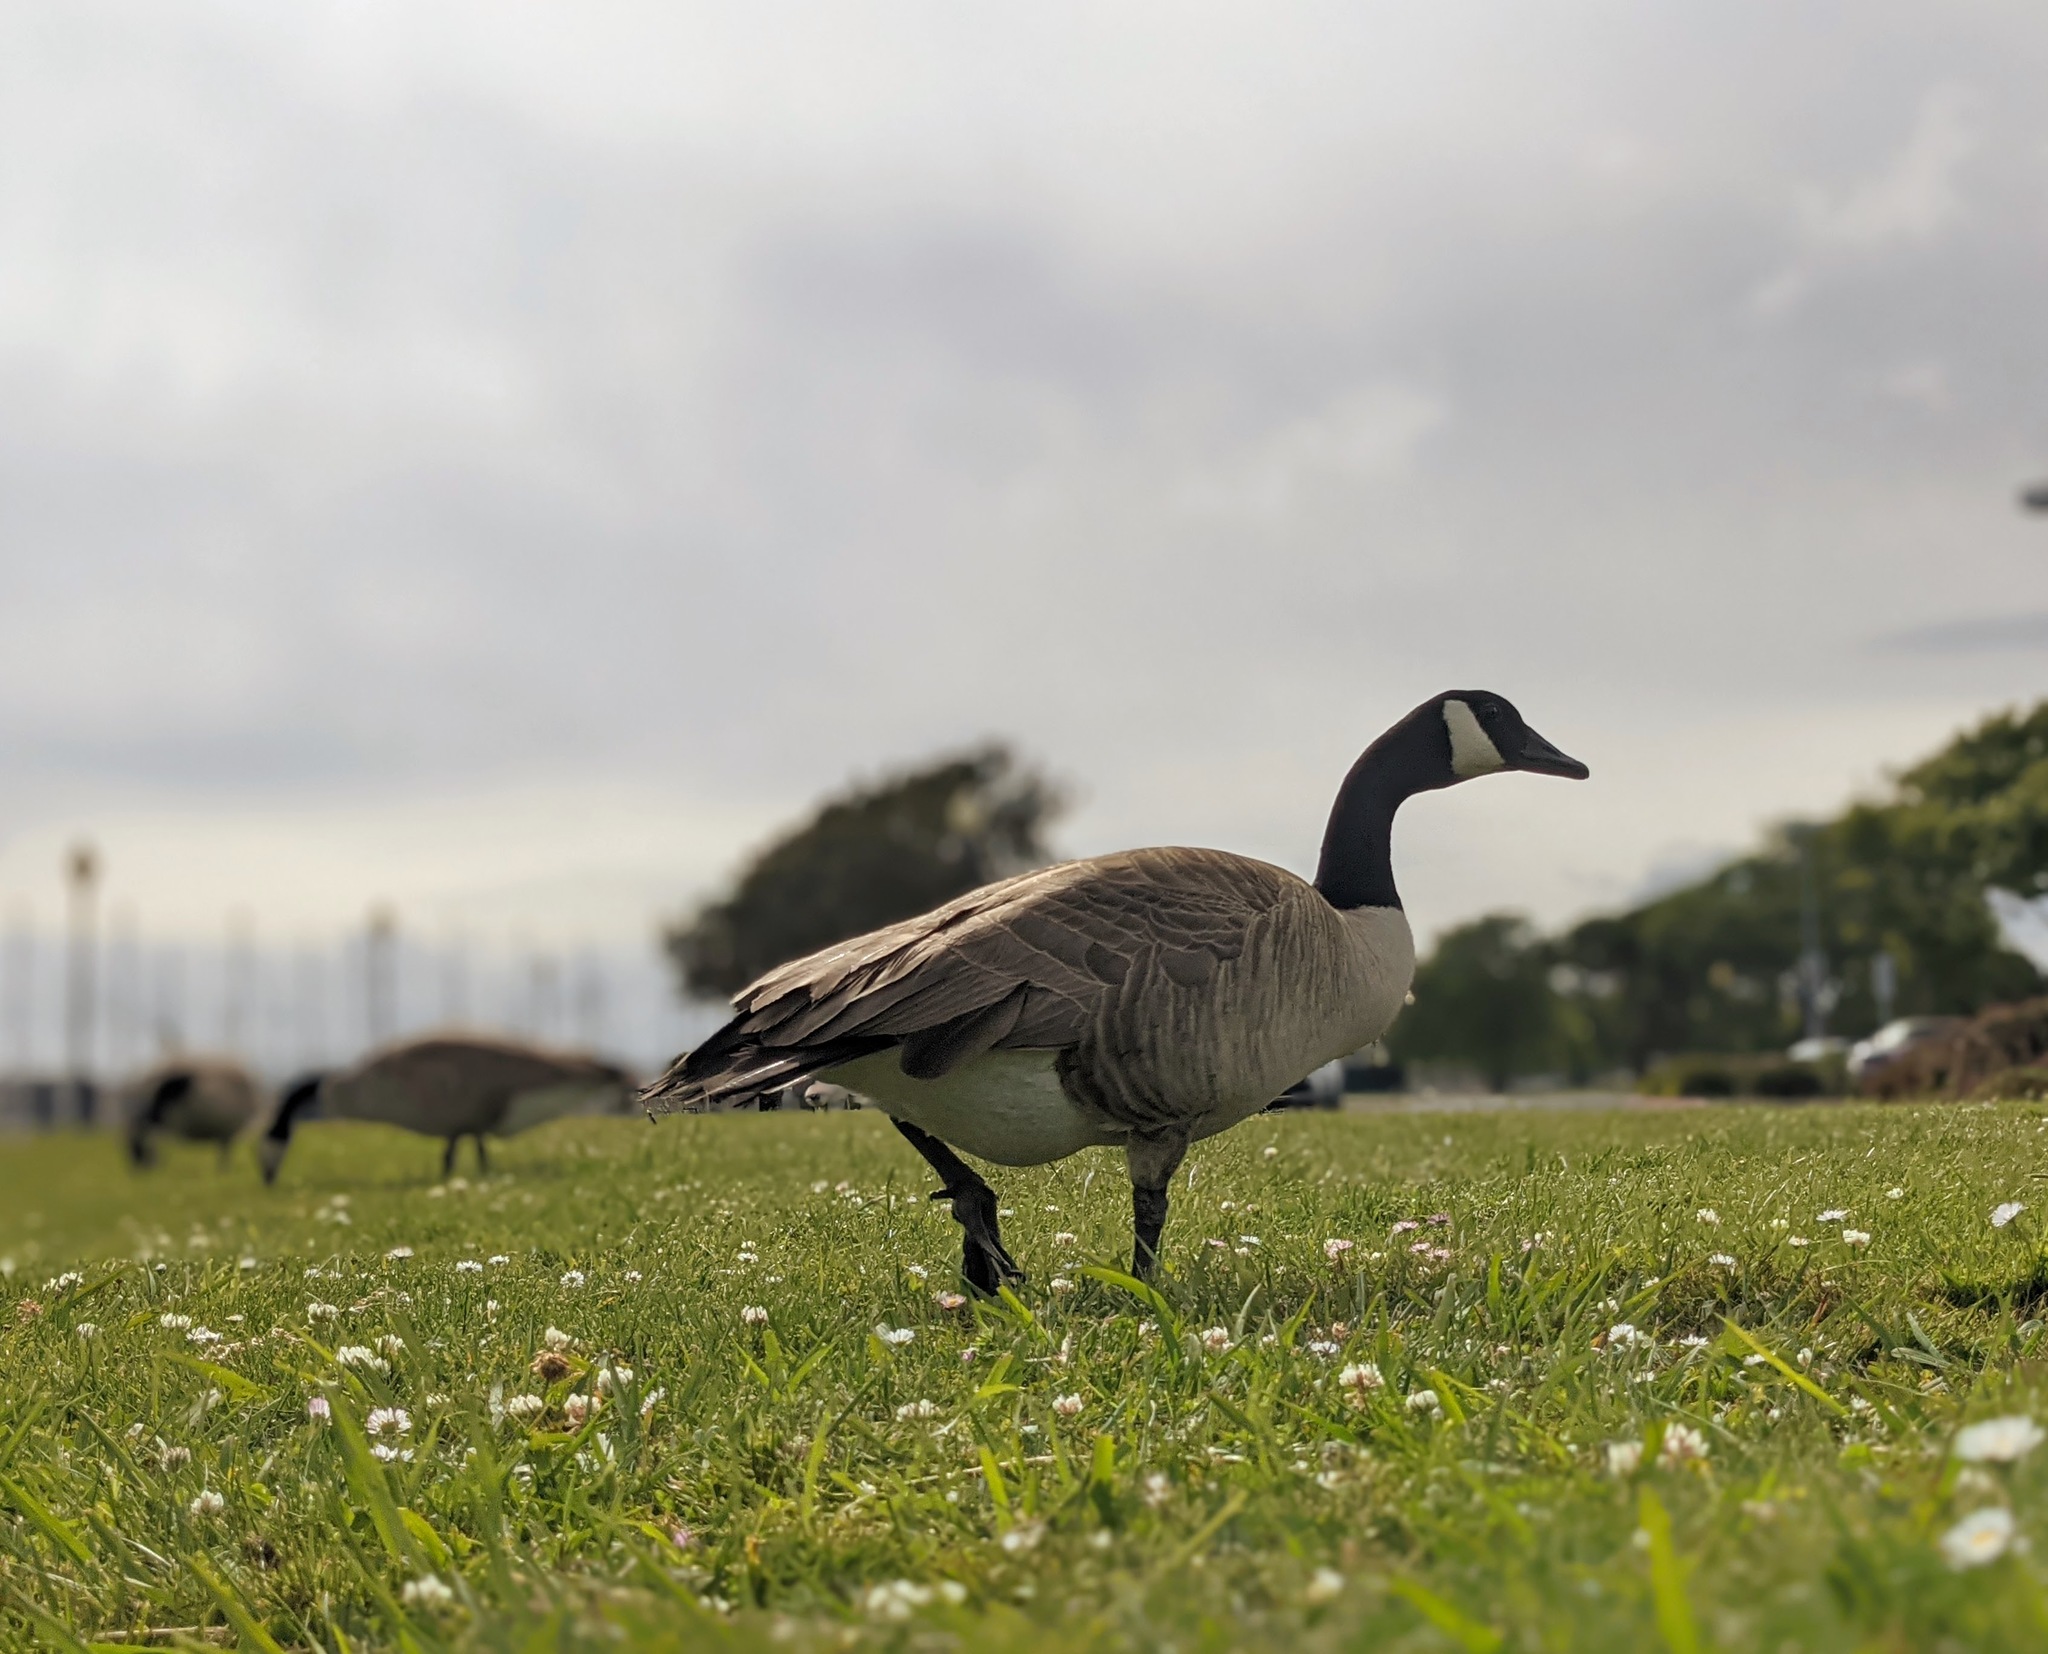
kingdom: Animalia
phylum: Chordata
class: Aves
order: Anseriformes
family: Anatidae
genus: Branta
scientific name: Branta canadensis
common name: Canada goose
